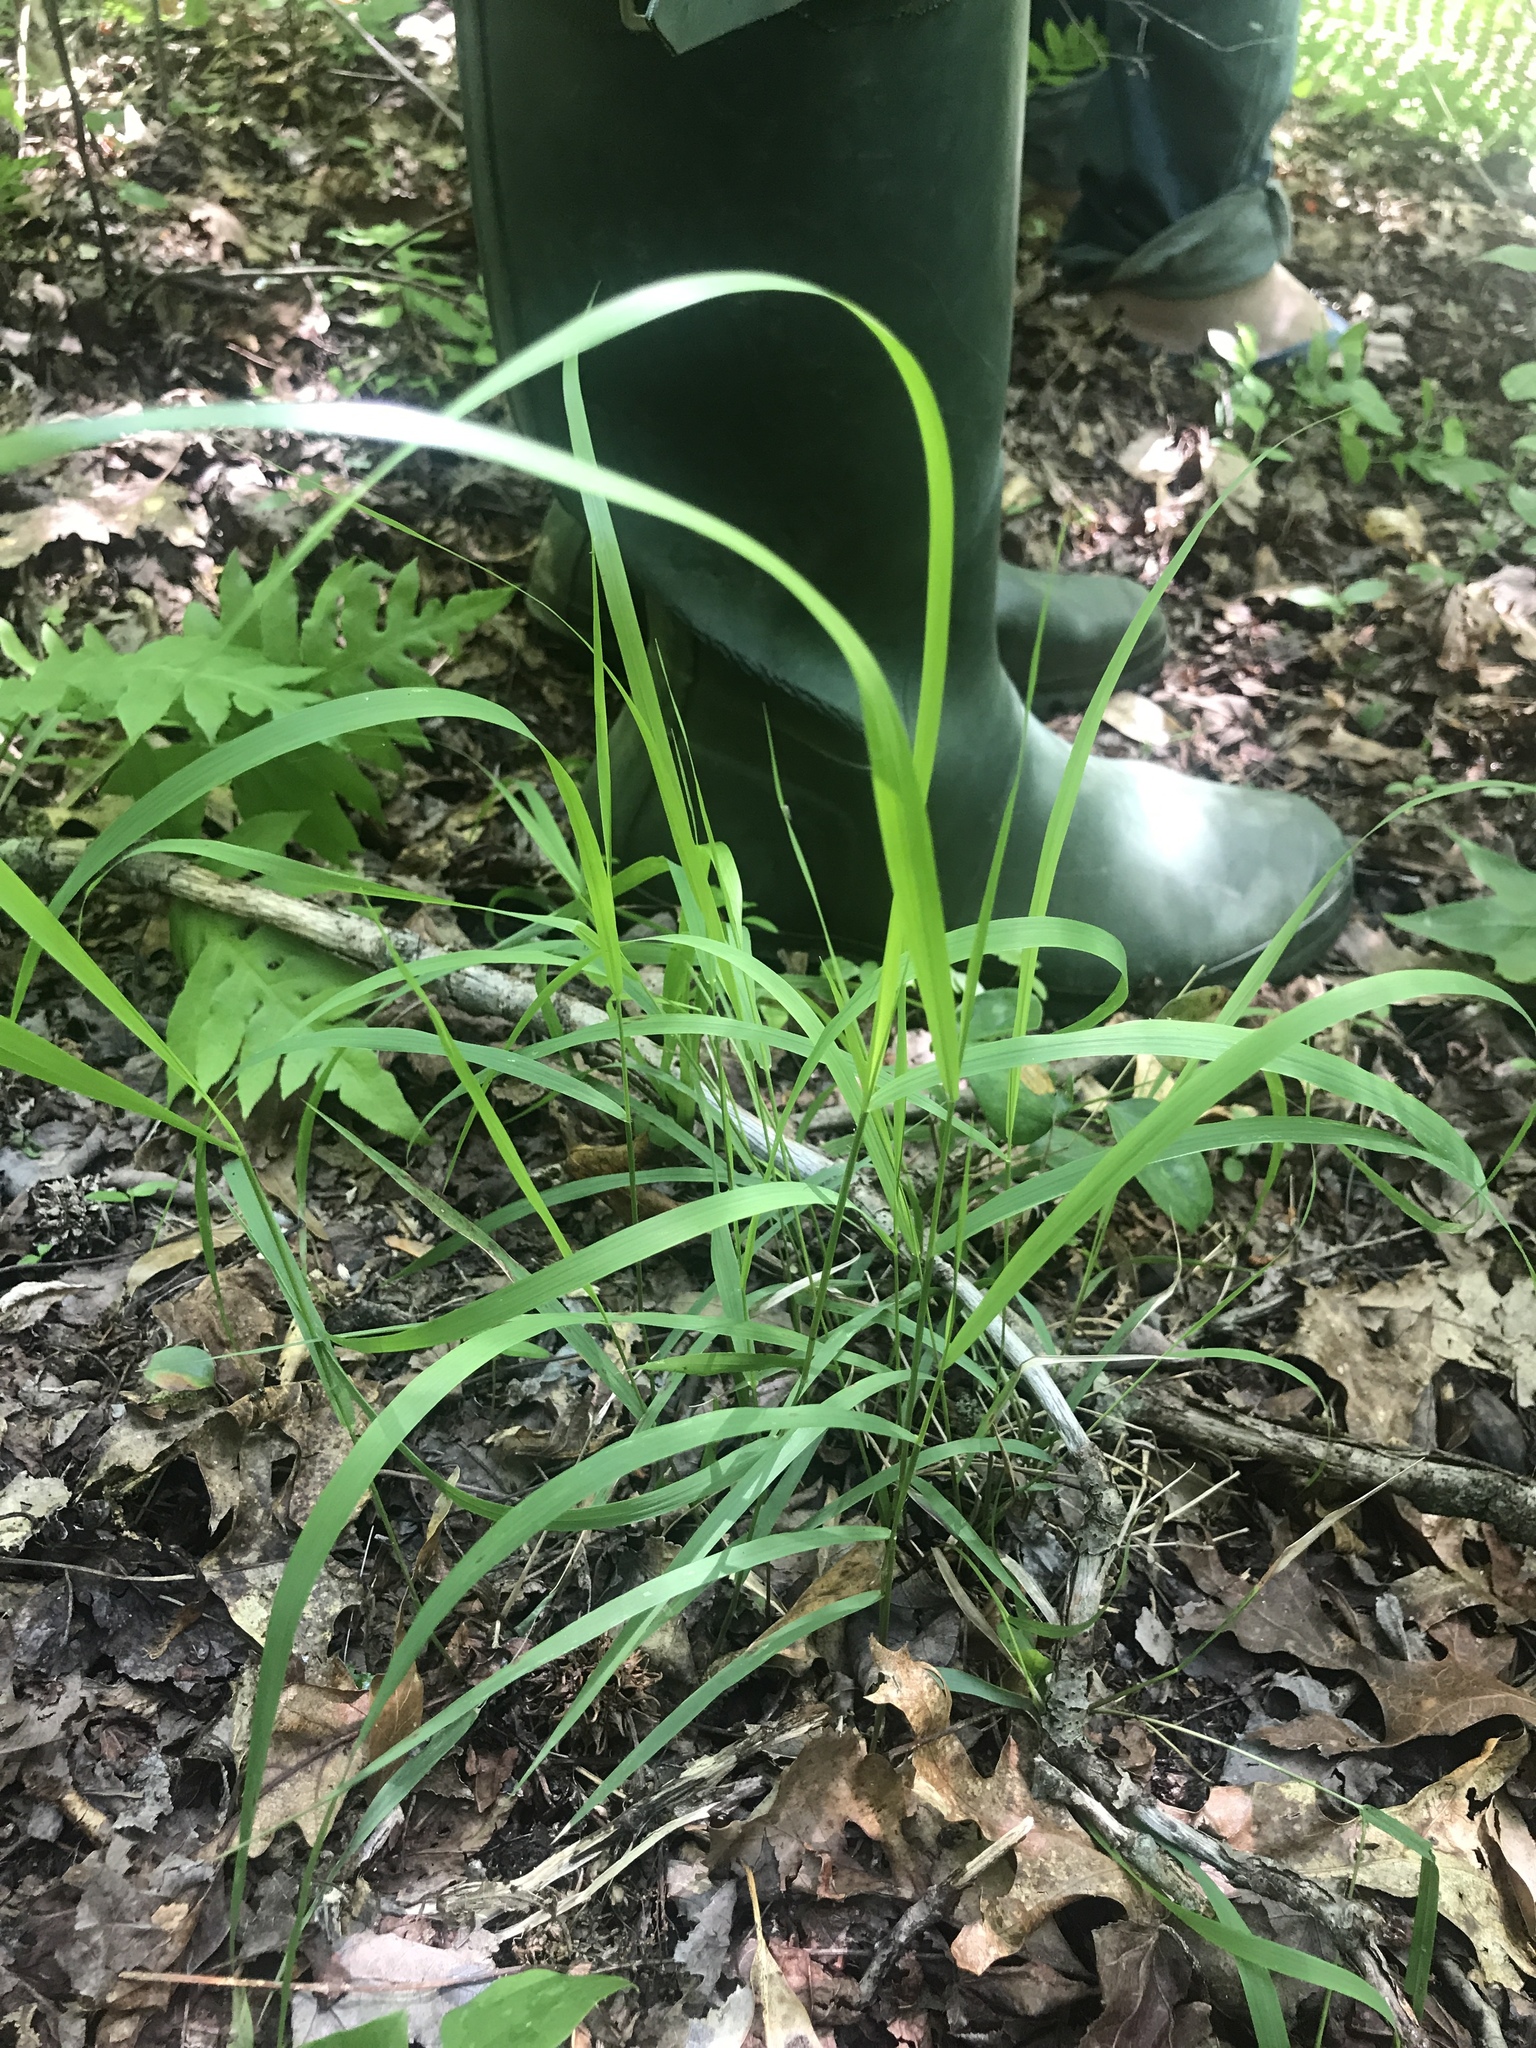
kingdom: Plantae
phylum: Tracheophyta
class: Liliopsida
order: Poales
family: Poaceae
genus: Chasmanthium
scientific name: Chasmanthium laxum
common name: Slender chasmanthium
